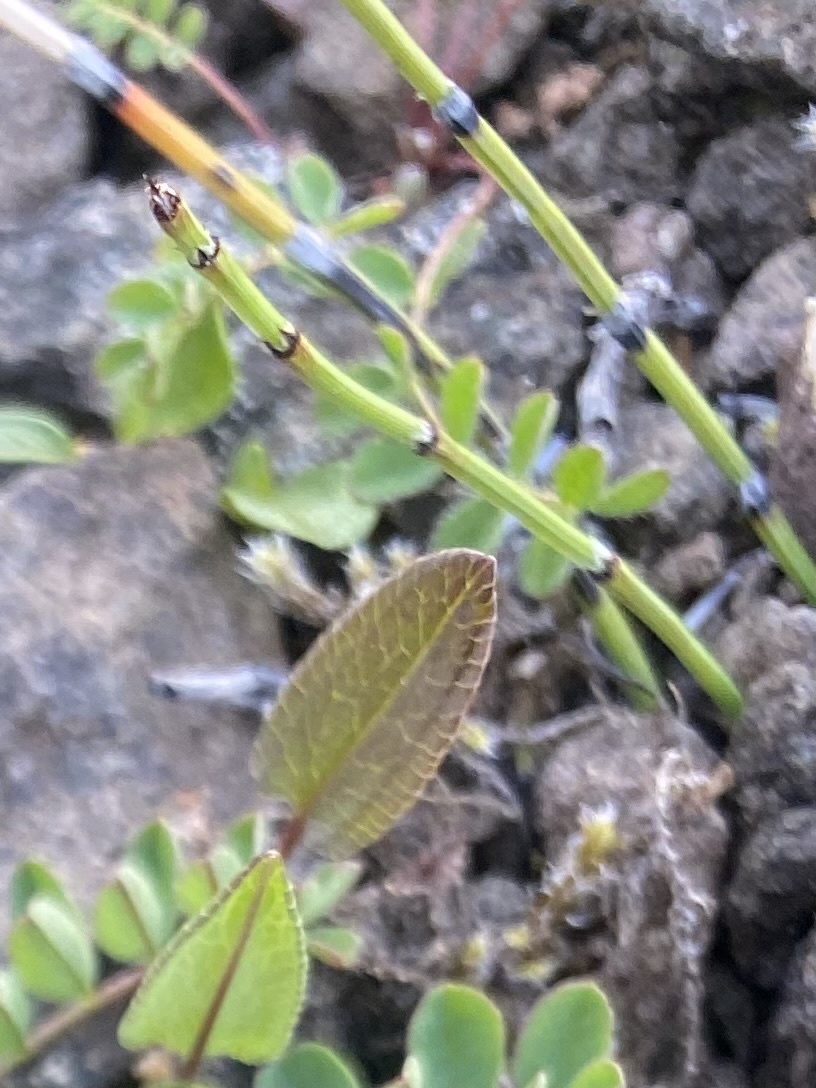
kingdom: Plantae
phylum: Tracheophyta
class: Polypodiopsida
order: Equisetales
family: Equisetaceae
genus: Equisetum
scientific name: Equisetum variegatum
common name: Variegated horsetail
